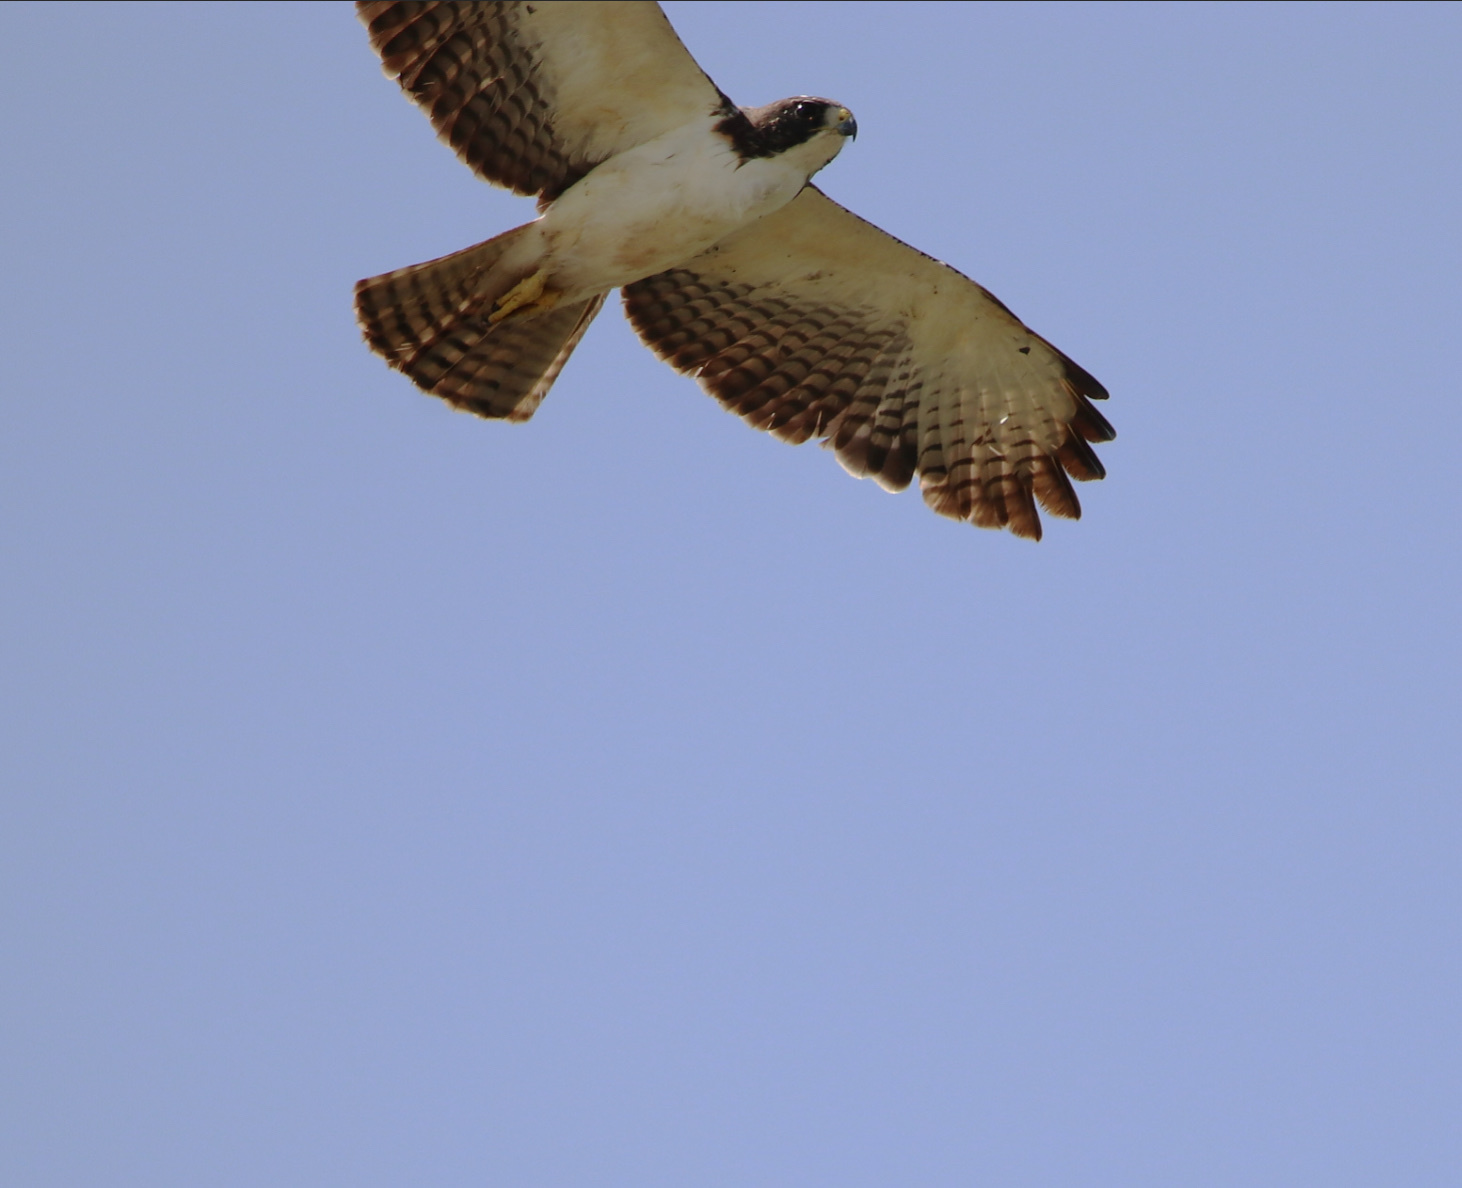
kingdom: Animalia
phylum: Chordata
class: Aves
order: Accipitriformes
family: Accipitridae
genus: Buteo
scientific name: Buteo brachyurus
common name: Short-tailed hawk
